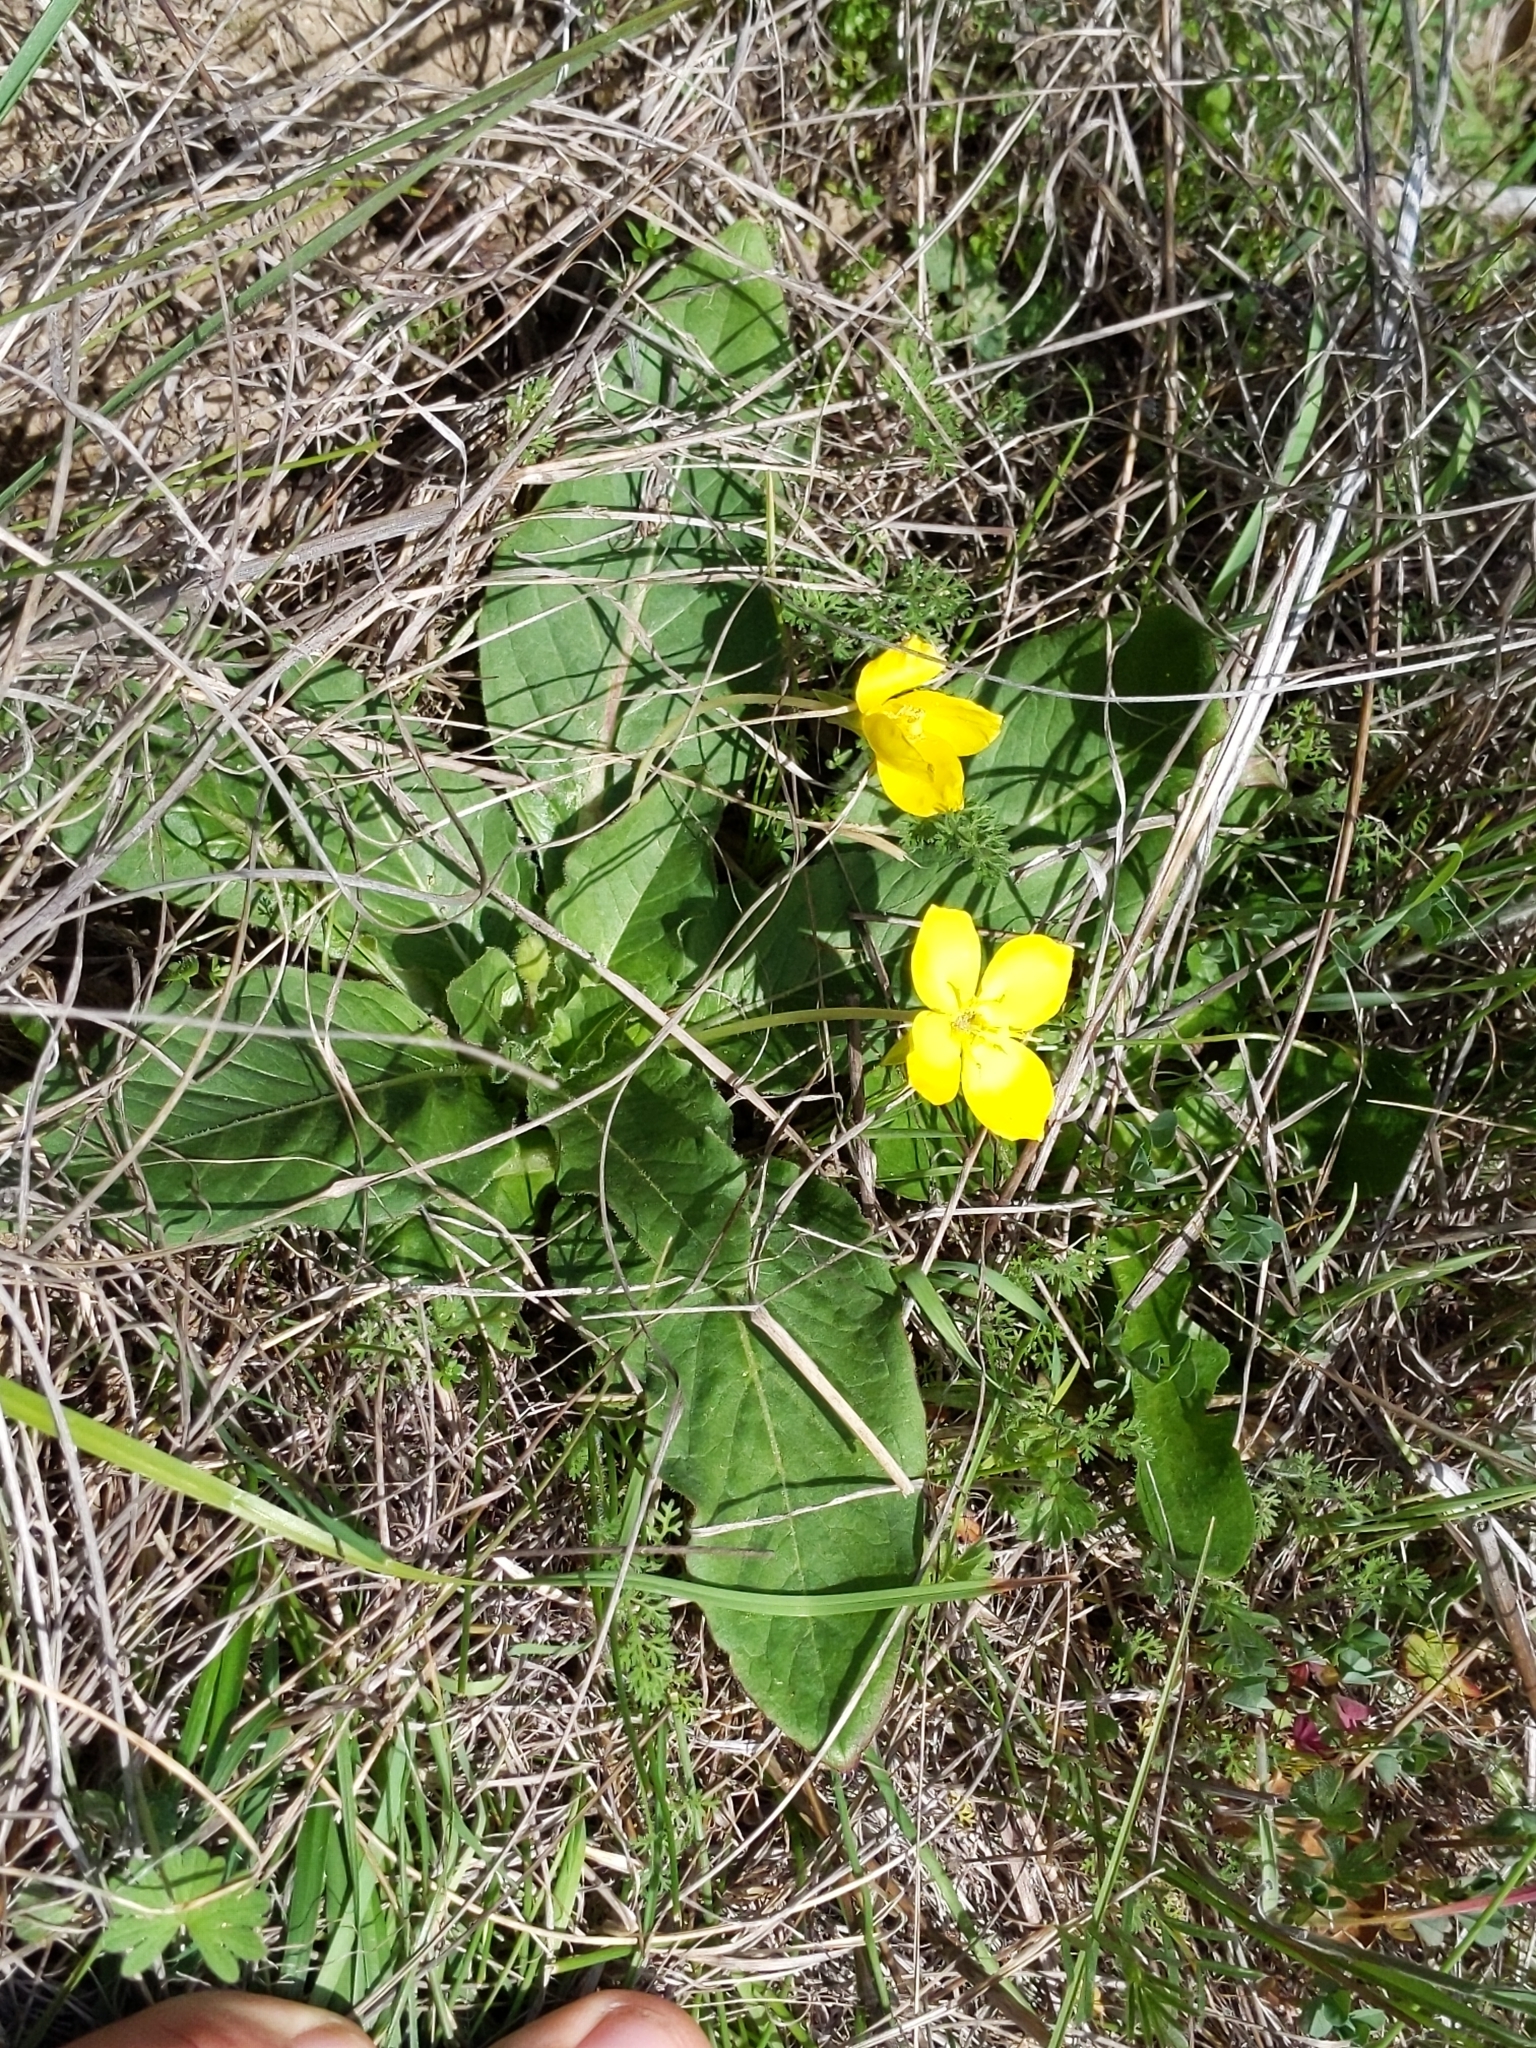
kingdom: Plantae
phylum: Tracheophyta
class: Magnoliopsida
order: Myrtales
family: Onagraceae
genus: Taraxia
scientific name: Taraxia ovata
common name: Goldeneggs
